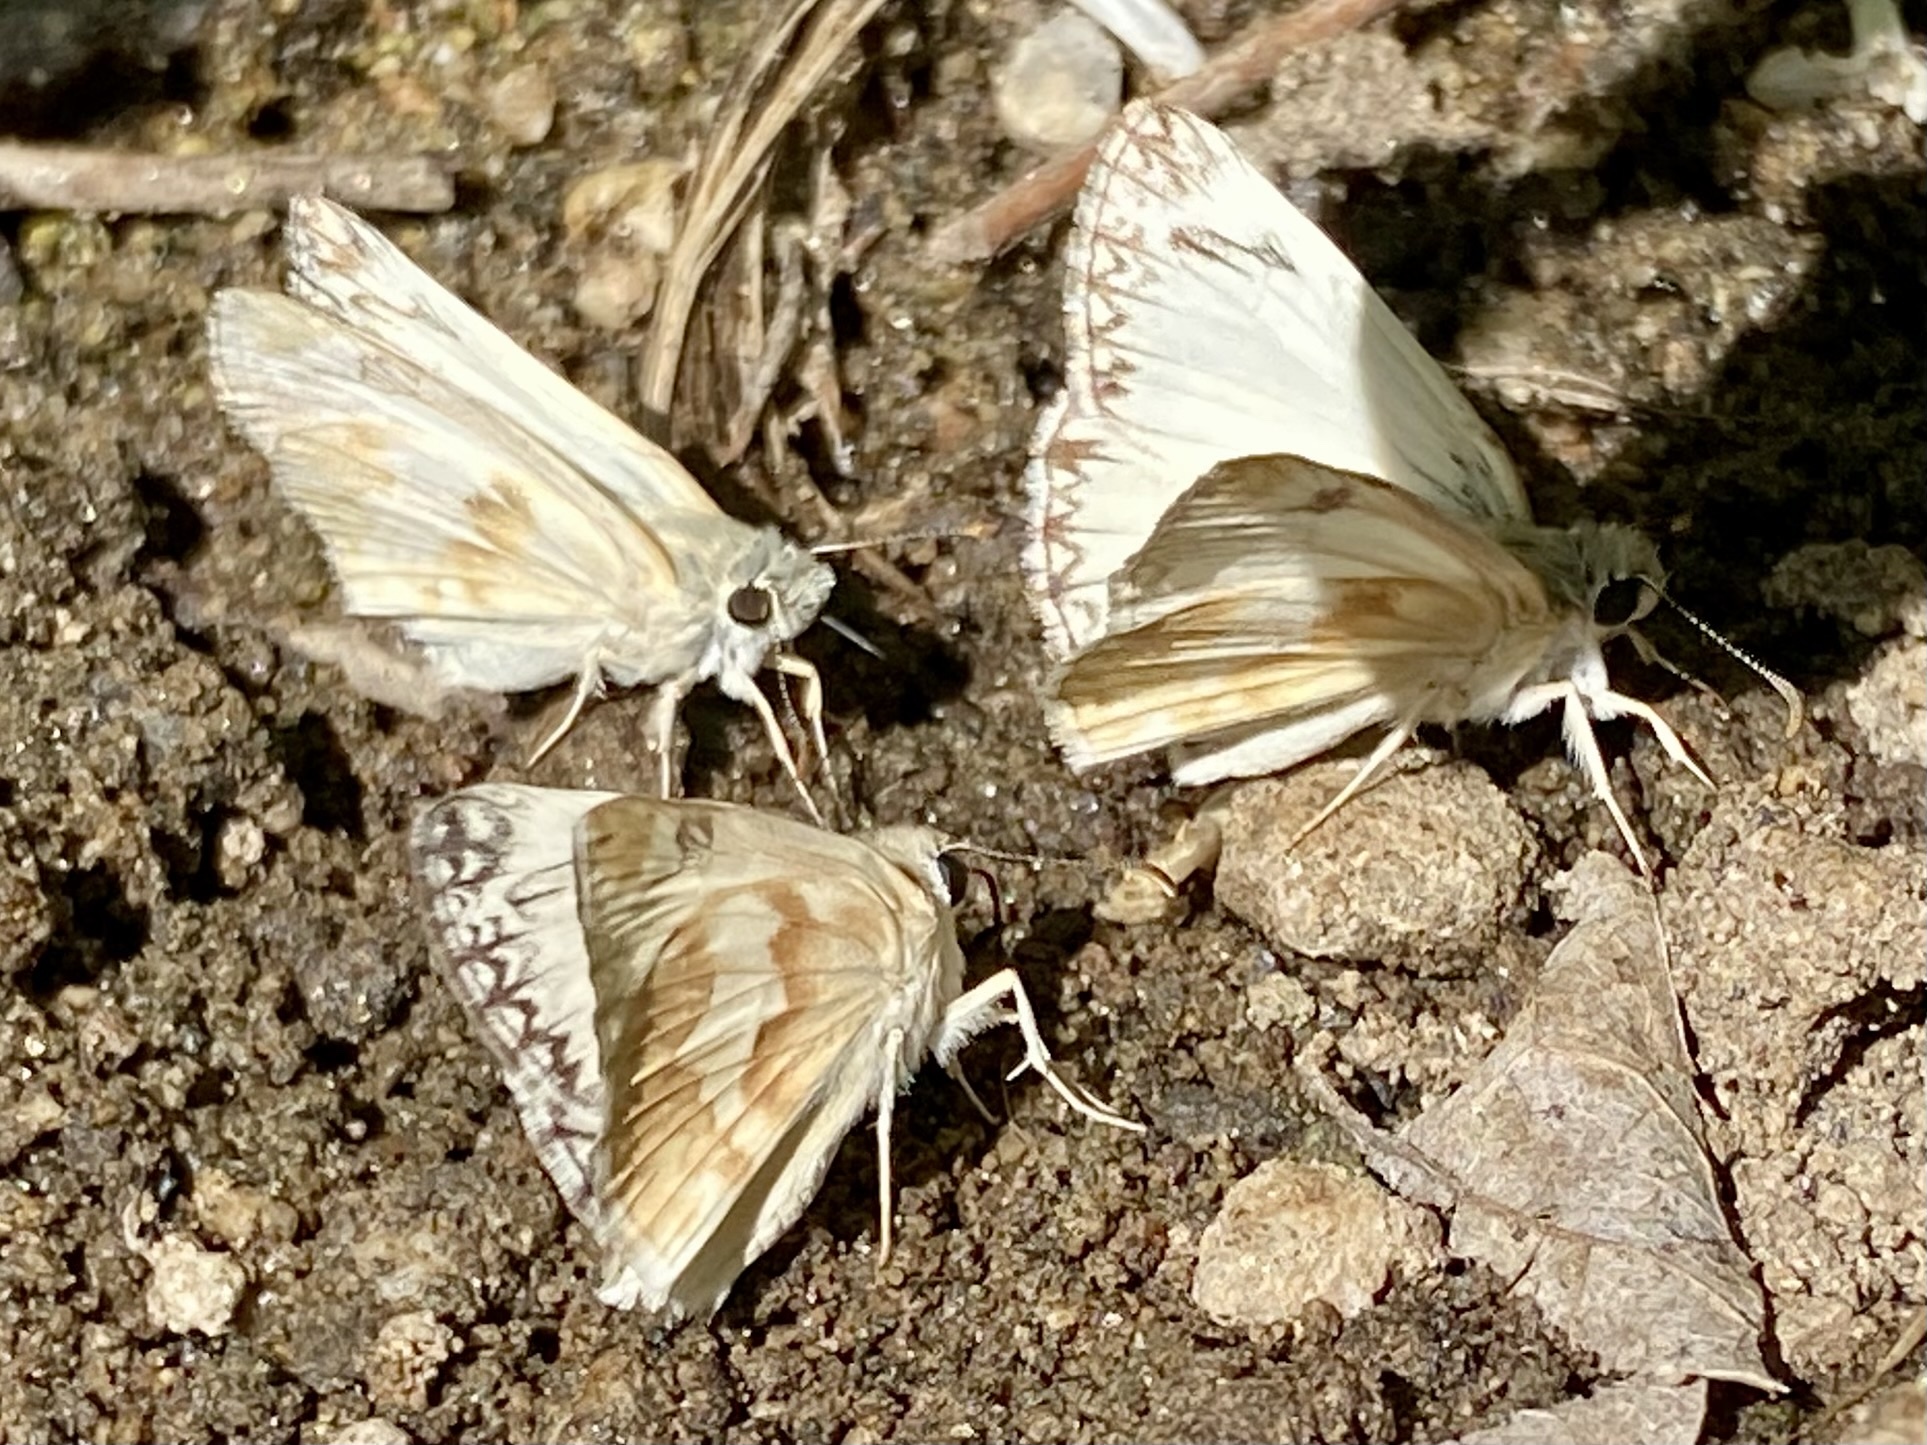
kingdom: Animalia
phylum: Arthropoda
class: Insecta
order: Lepidoptera
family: Hesperiidae
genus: Heliopetes
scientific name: Heliopetes ericetorum
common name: Northern white-skipper
